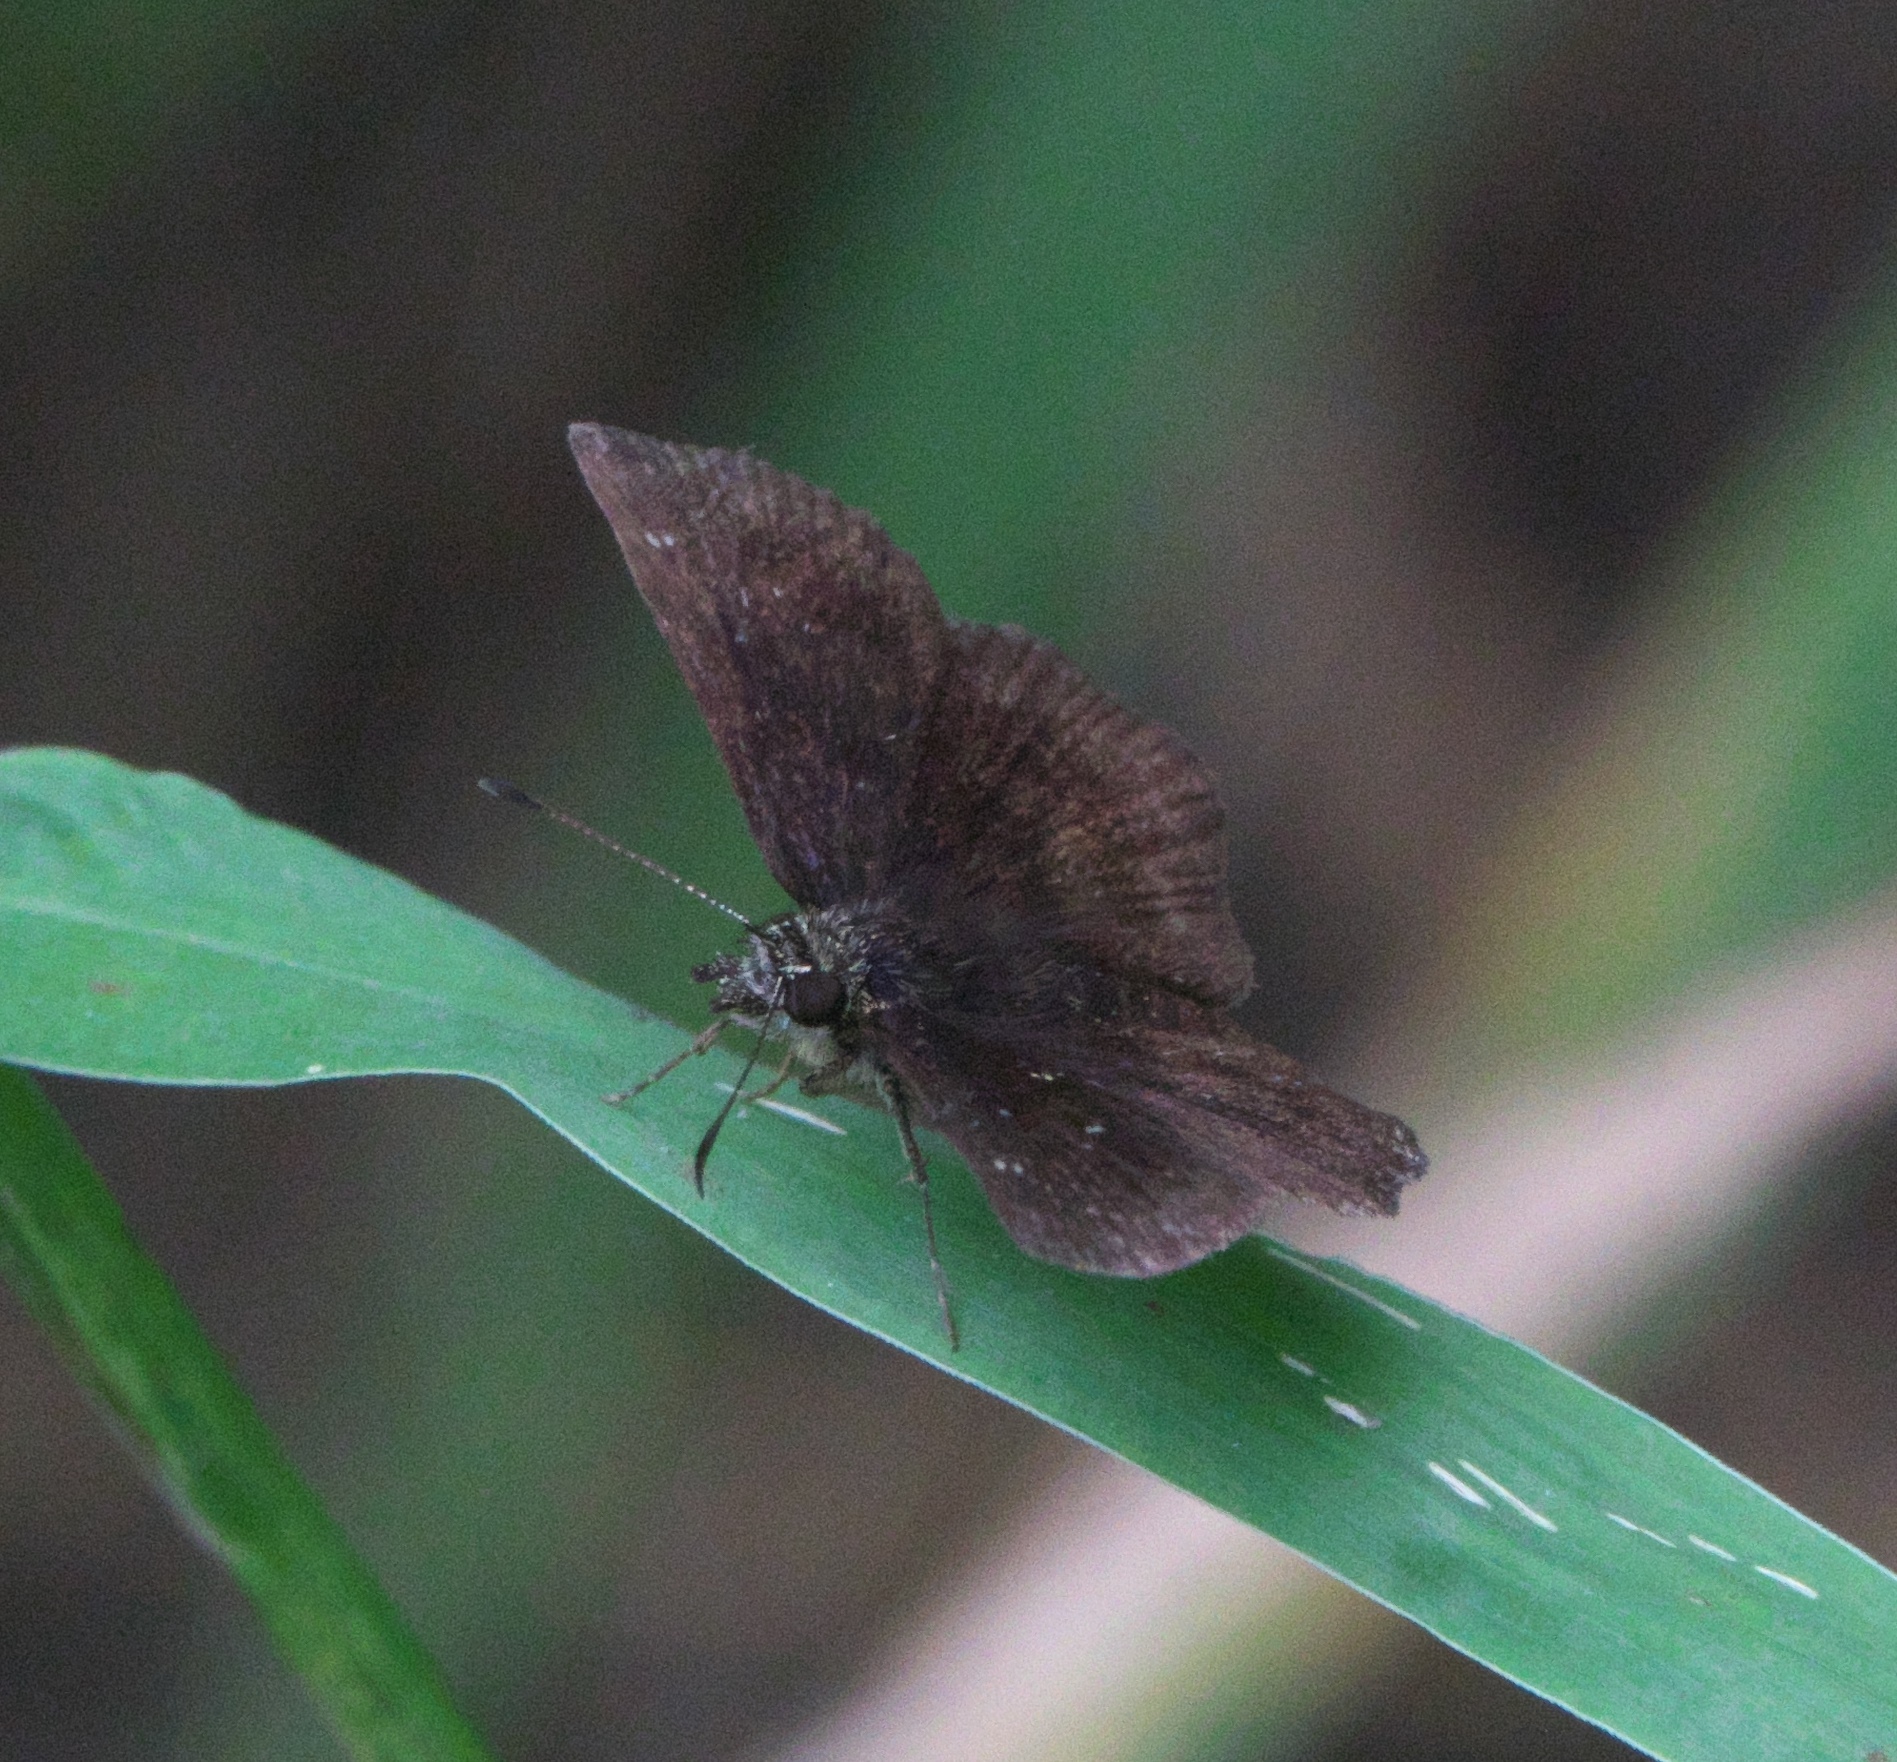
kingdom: Animalia
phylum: Arthropoda
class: Insecta
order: Lepidoptera
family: Hesperiidae
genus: Staphylus
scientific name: Staphylus mazans
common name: Mazans scallopwing
